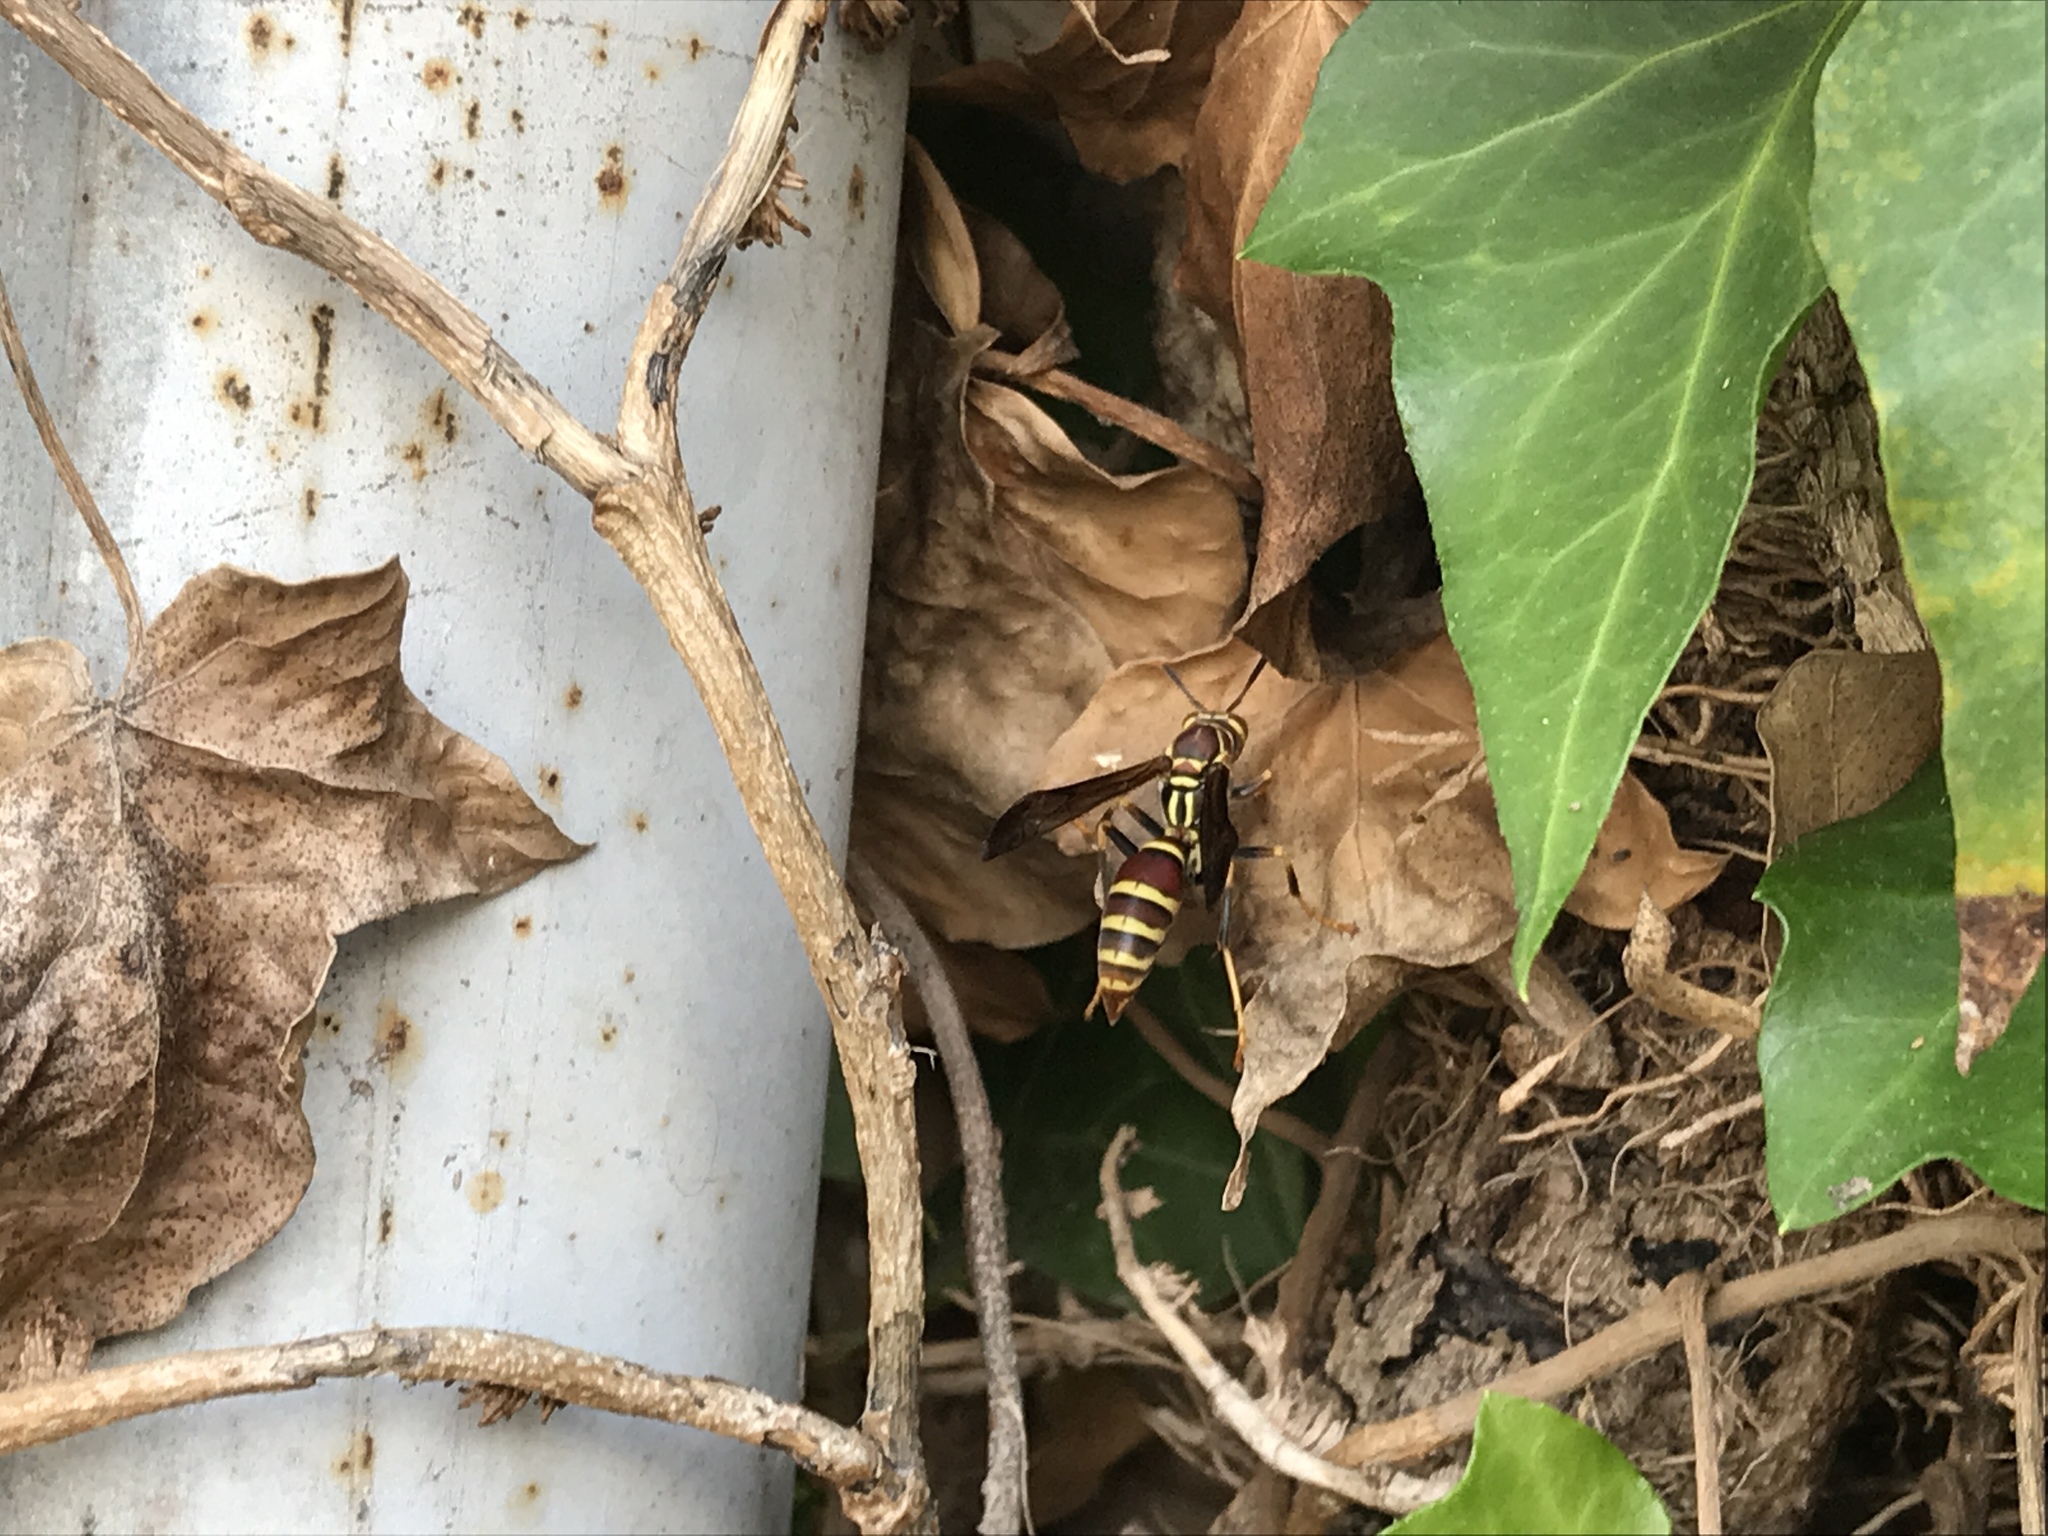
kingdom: Animalia
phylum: Arthropoda
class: Insecta
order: Hymenoptera
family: Eumenidae
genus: Polistes
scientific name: Polistes exclamans
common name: Paper wasp
